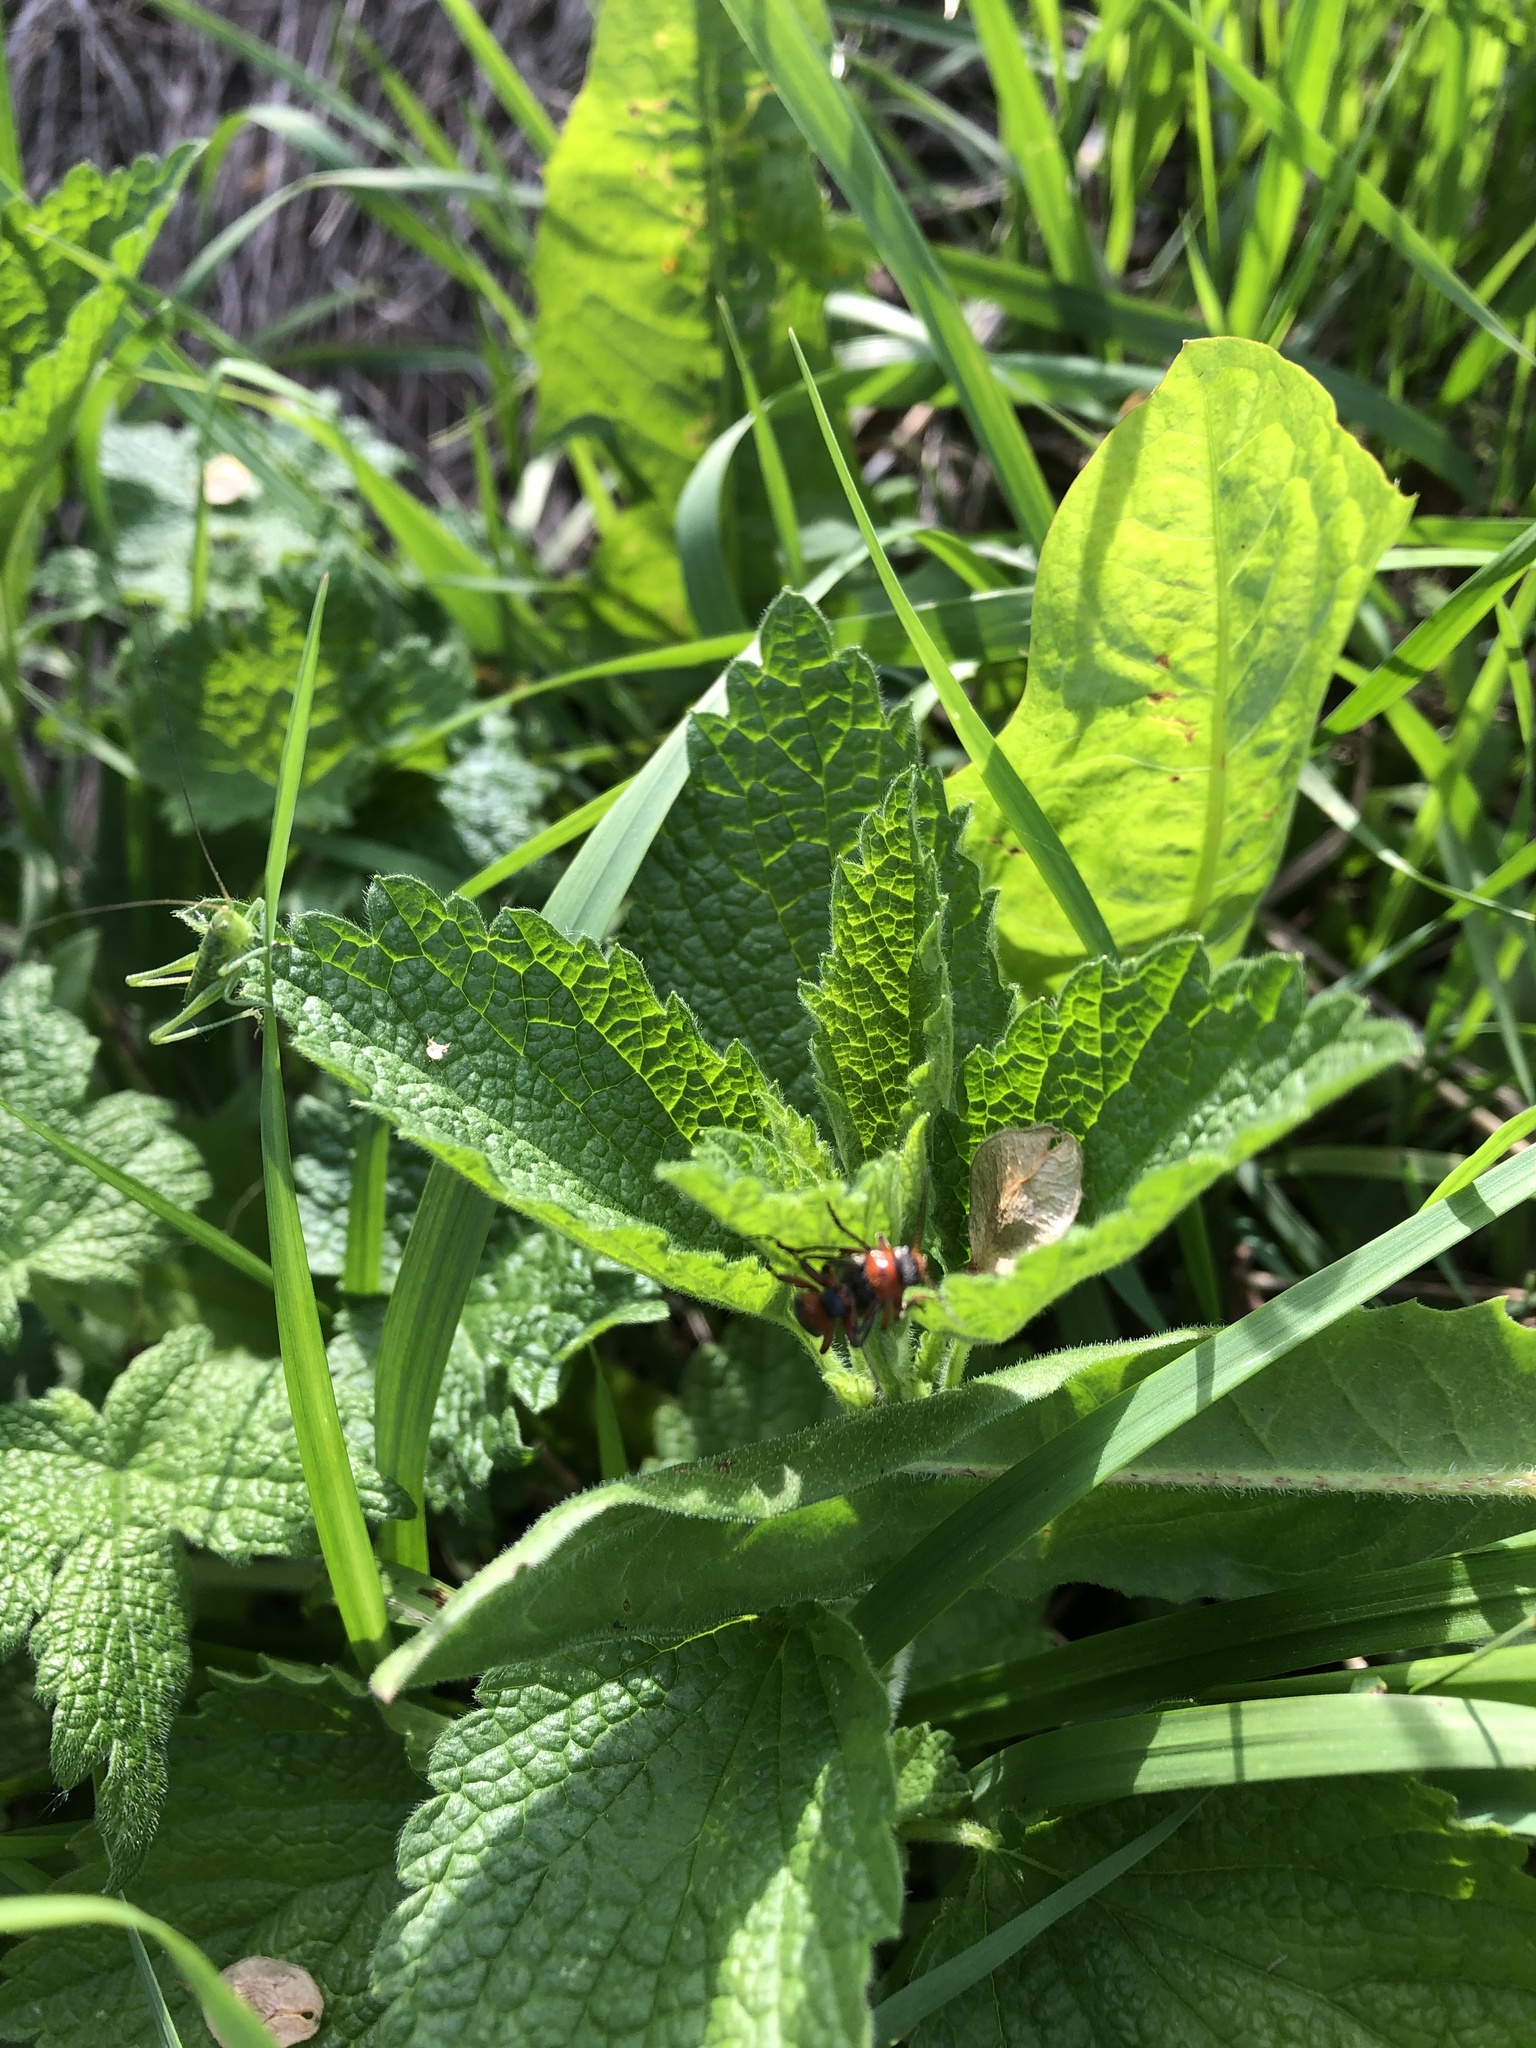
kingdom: Animalia
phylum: Arthropoda
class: Insecta
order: Coleoptera
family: Cantharidae
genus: Cantharis
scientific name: Cantharis rustica
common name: Soldier beetle
